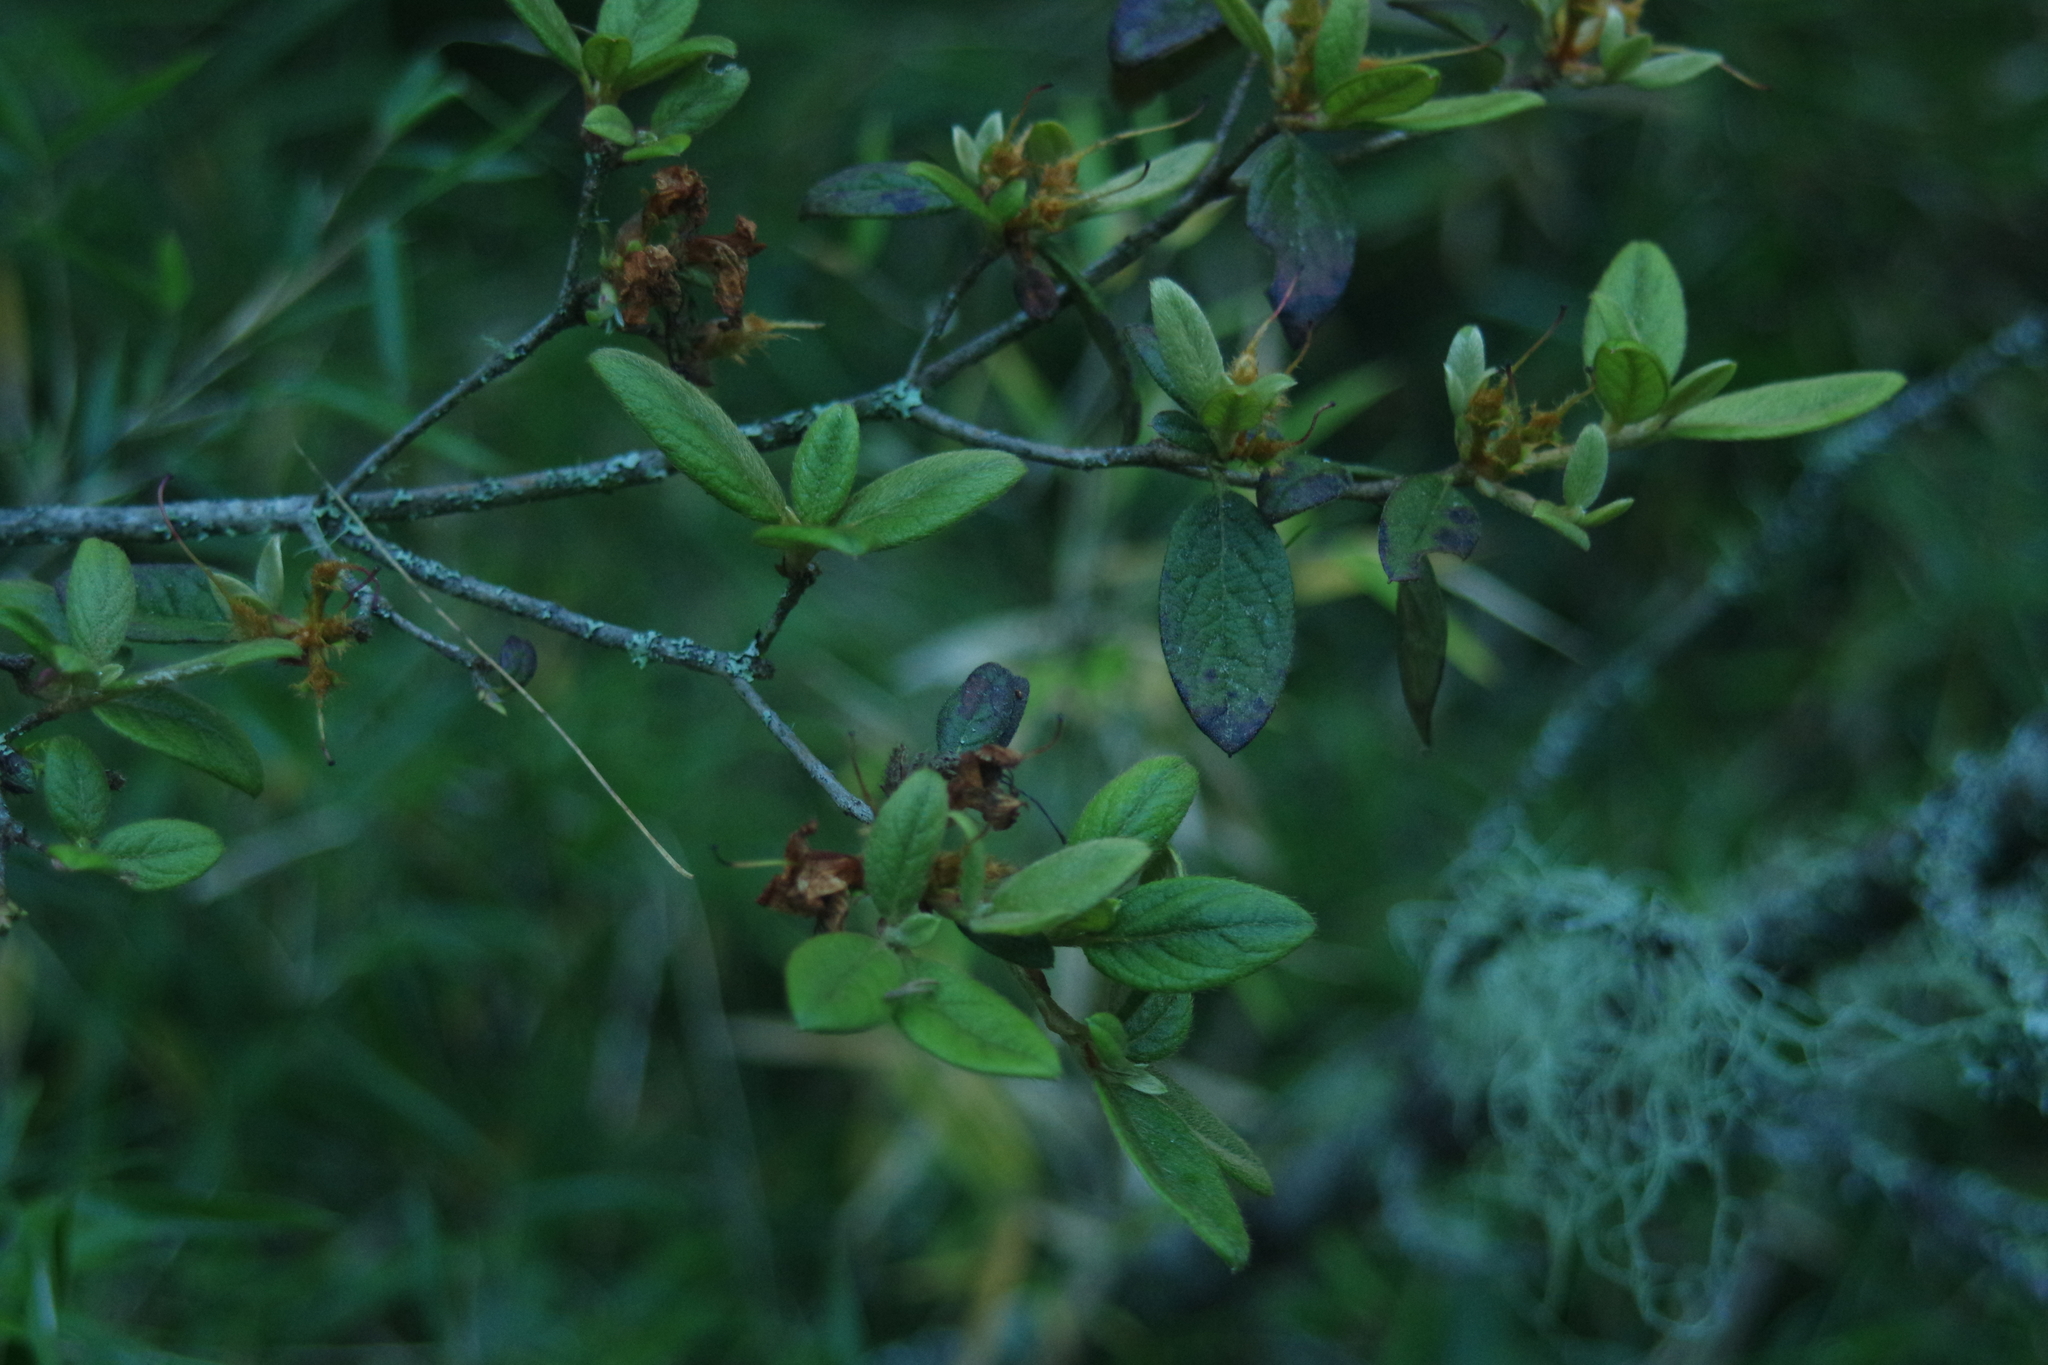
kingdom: Plantae
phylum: Tracheophyta
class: Magnoliopsida
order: Ericales
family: Ericaceae
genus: Rhododendron
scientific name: Rhododendron rubropilosum
